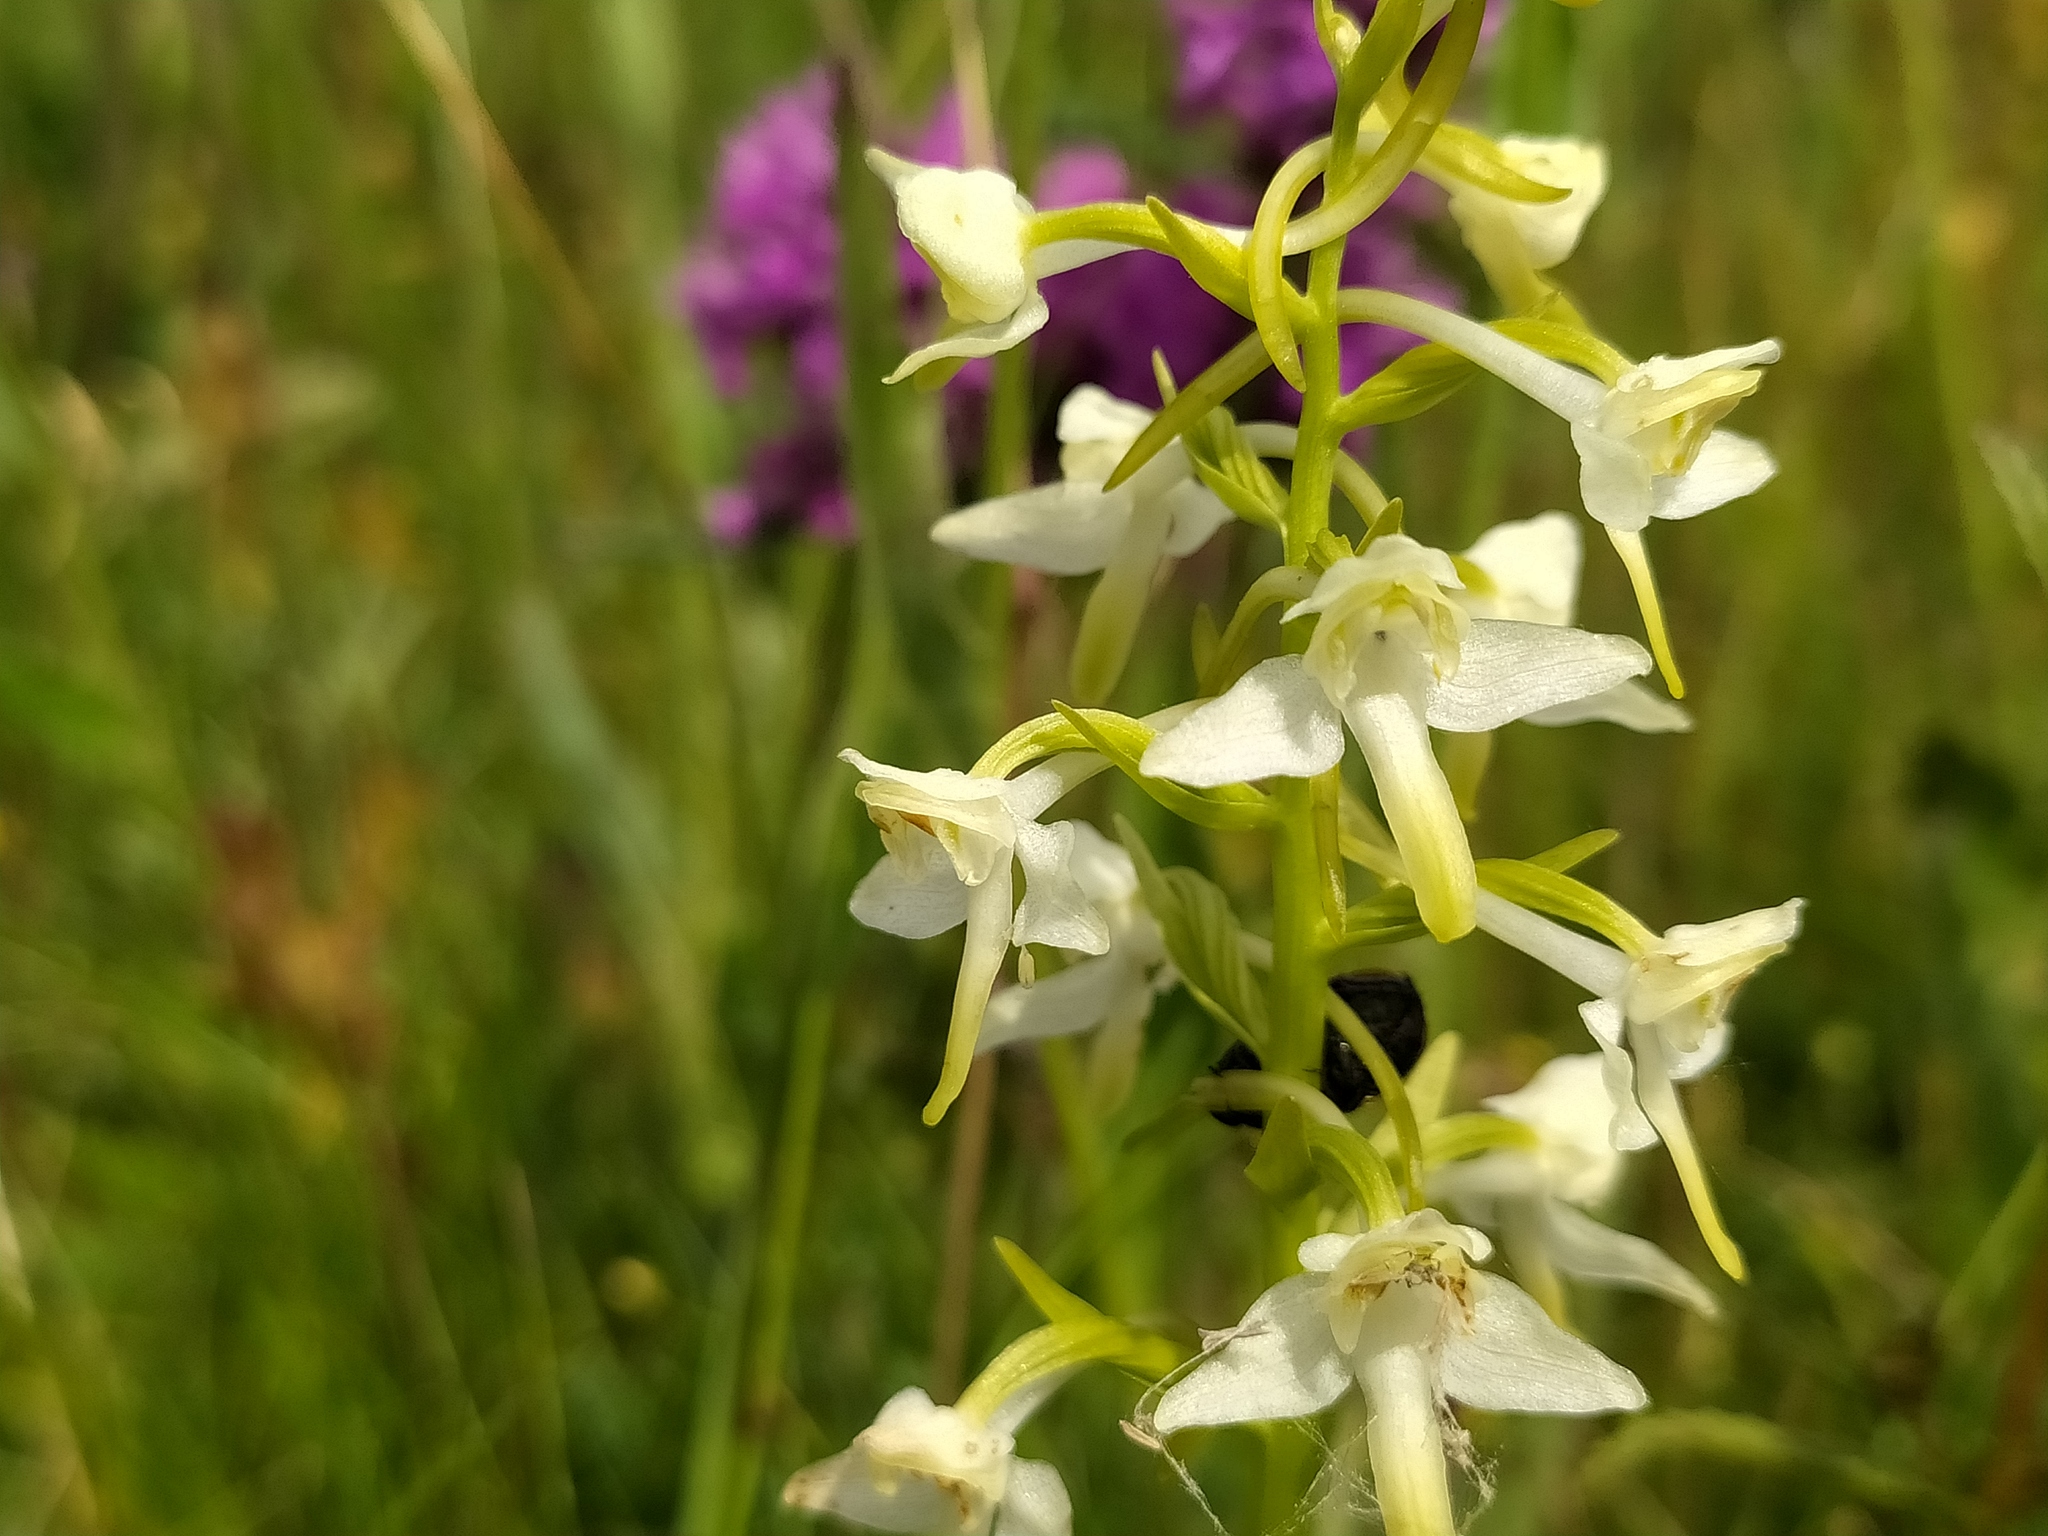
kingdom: Plantae
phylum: Tracheophyta
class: Liliopsida
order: Asparagales
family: Orchidaceae
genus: Platanthera
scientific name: Platanthera chlorantha
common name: Greater butterfly-orchid
